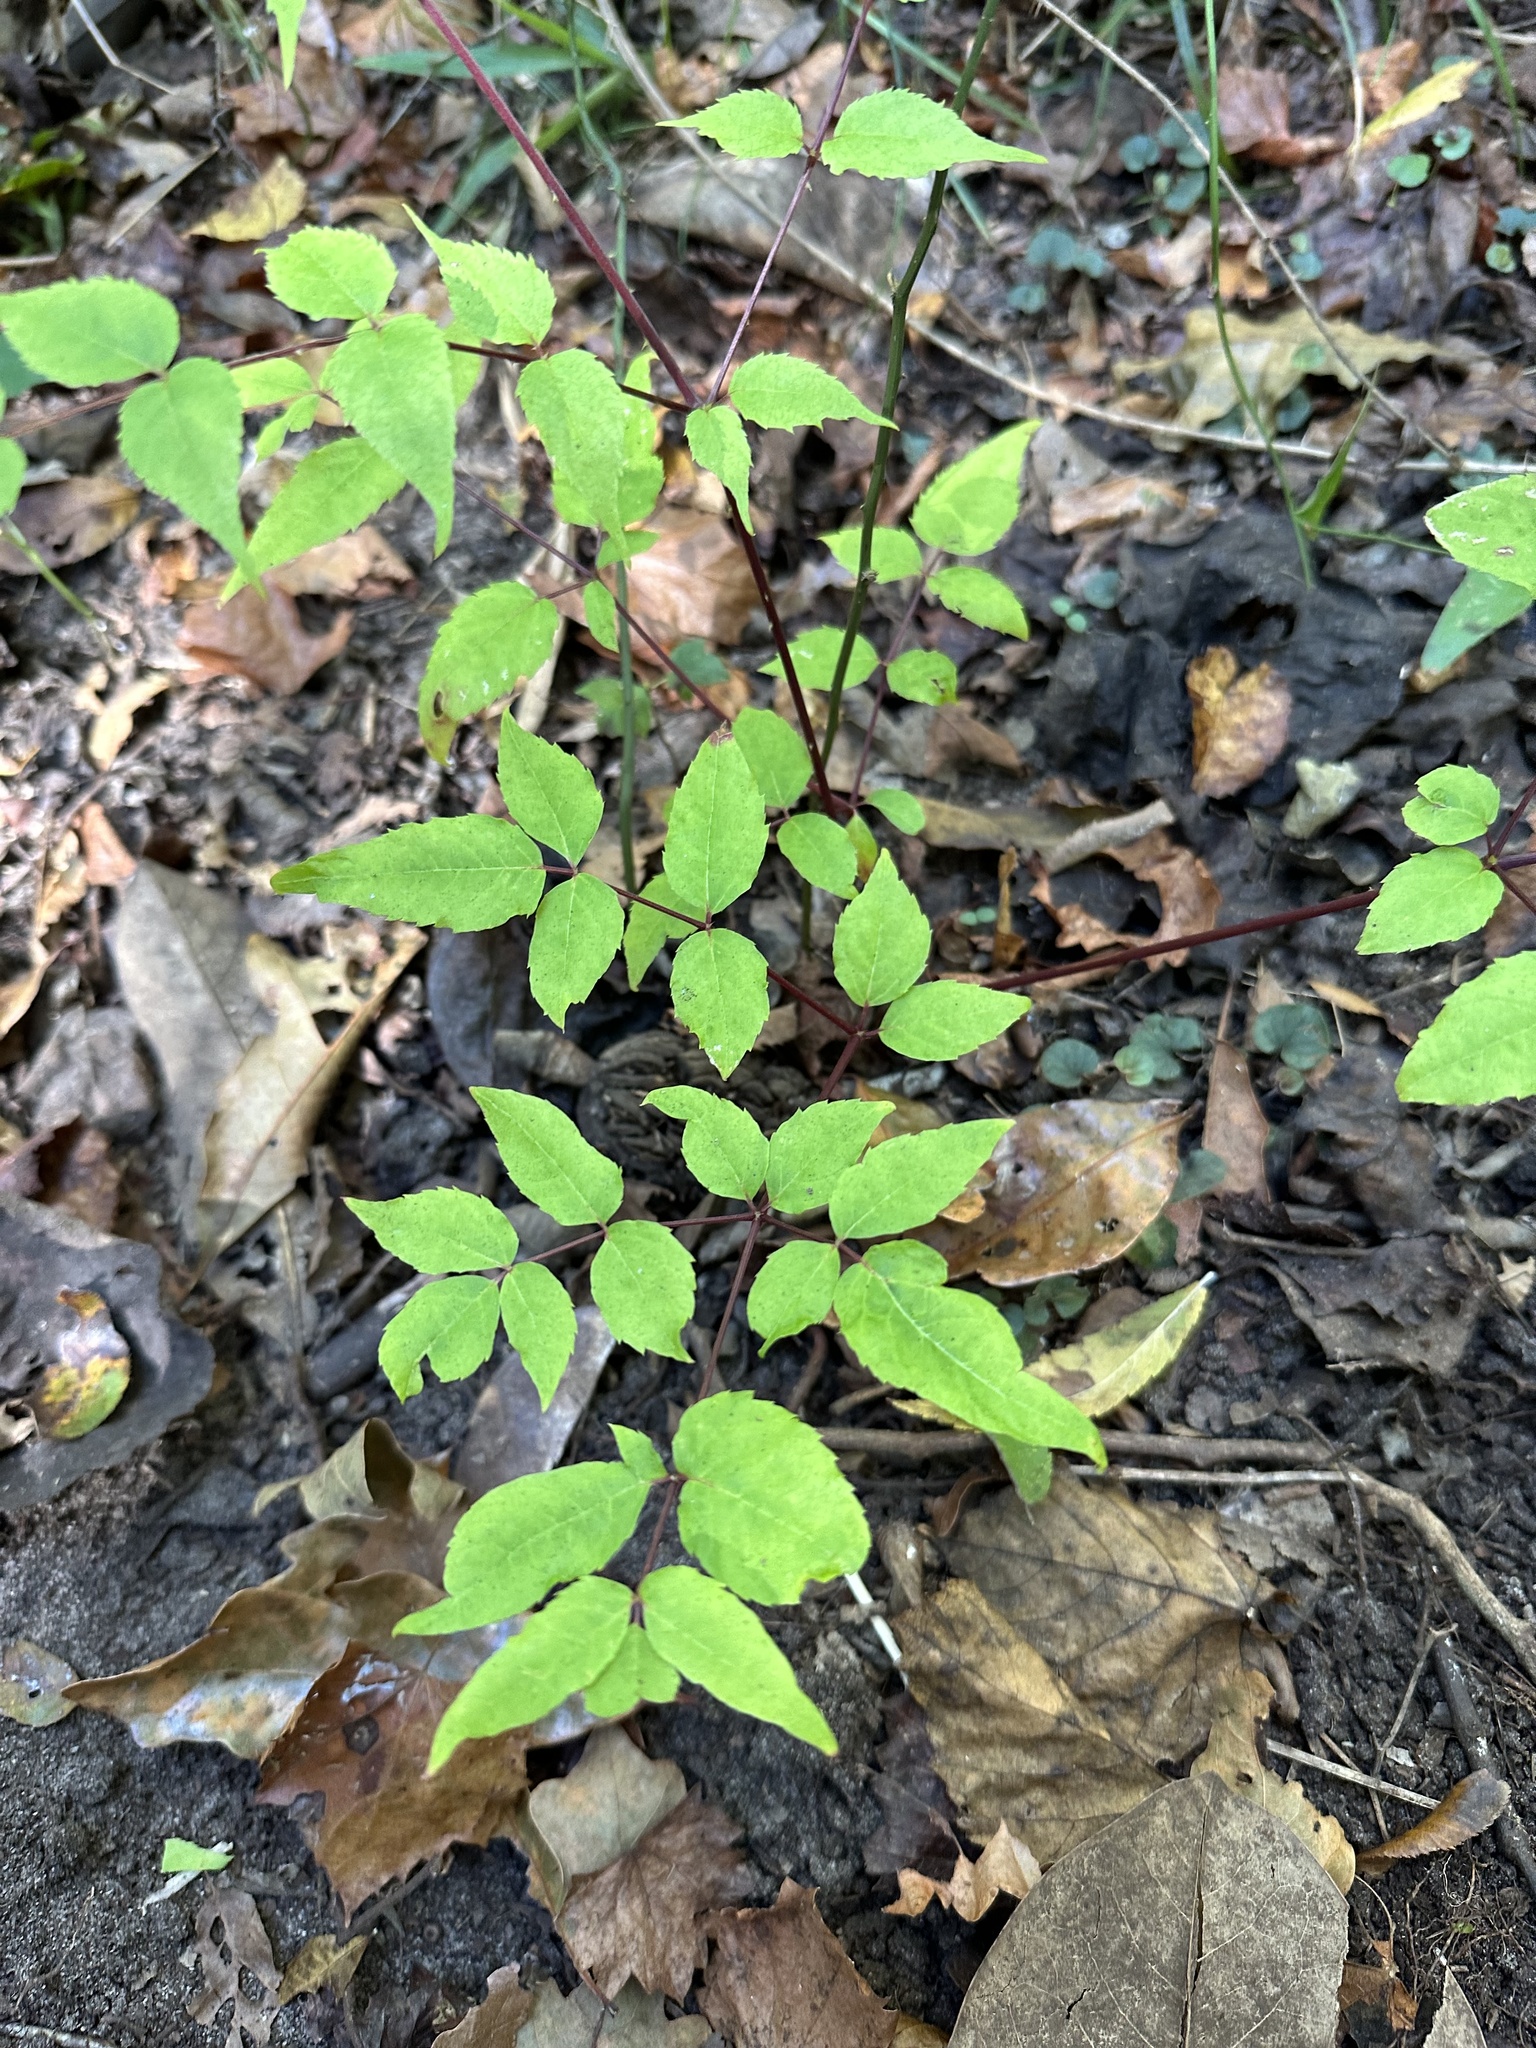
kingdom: Plantae
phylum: Tracheophyta
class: Magnoliopsida
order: Apiales
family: Araliaceae
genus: Aralia
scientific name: Aralia spinosa
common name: Hercules'-club
